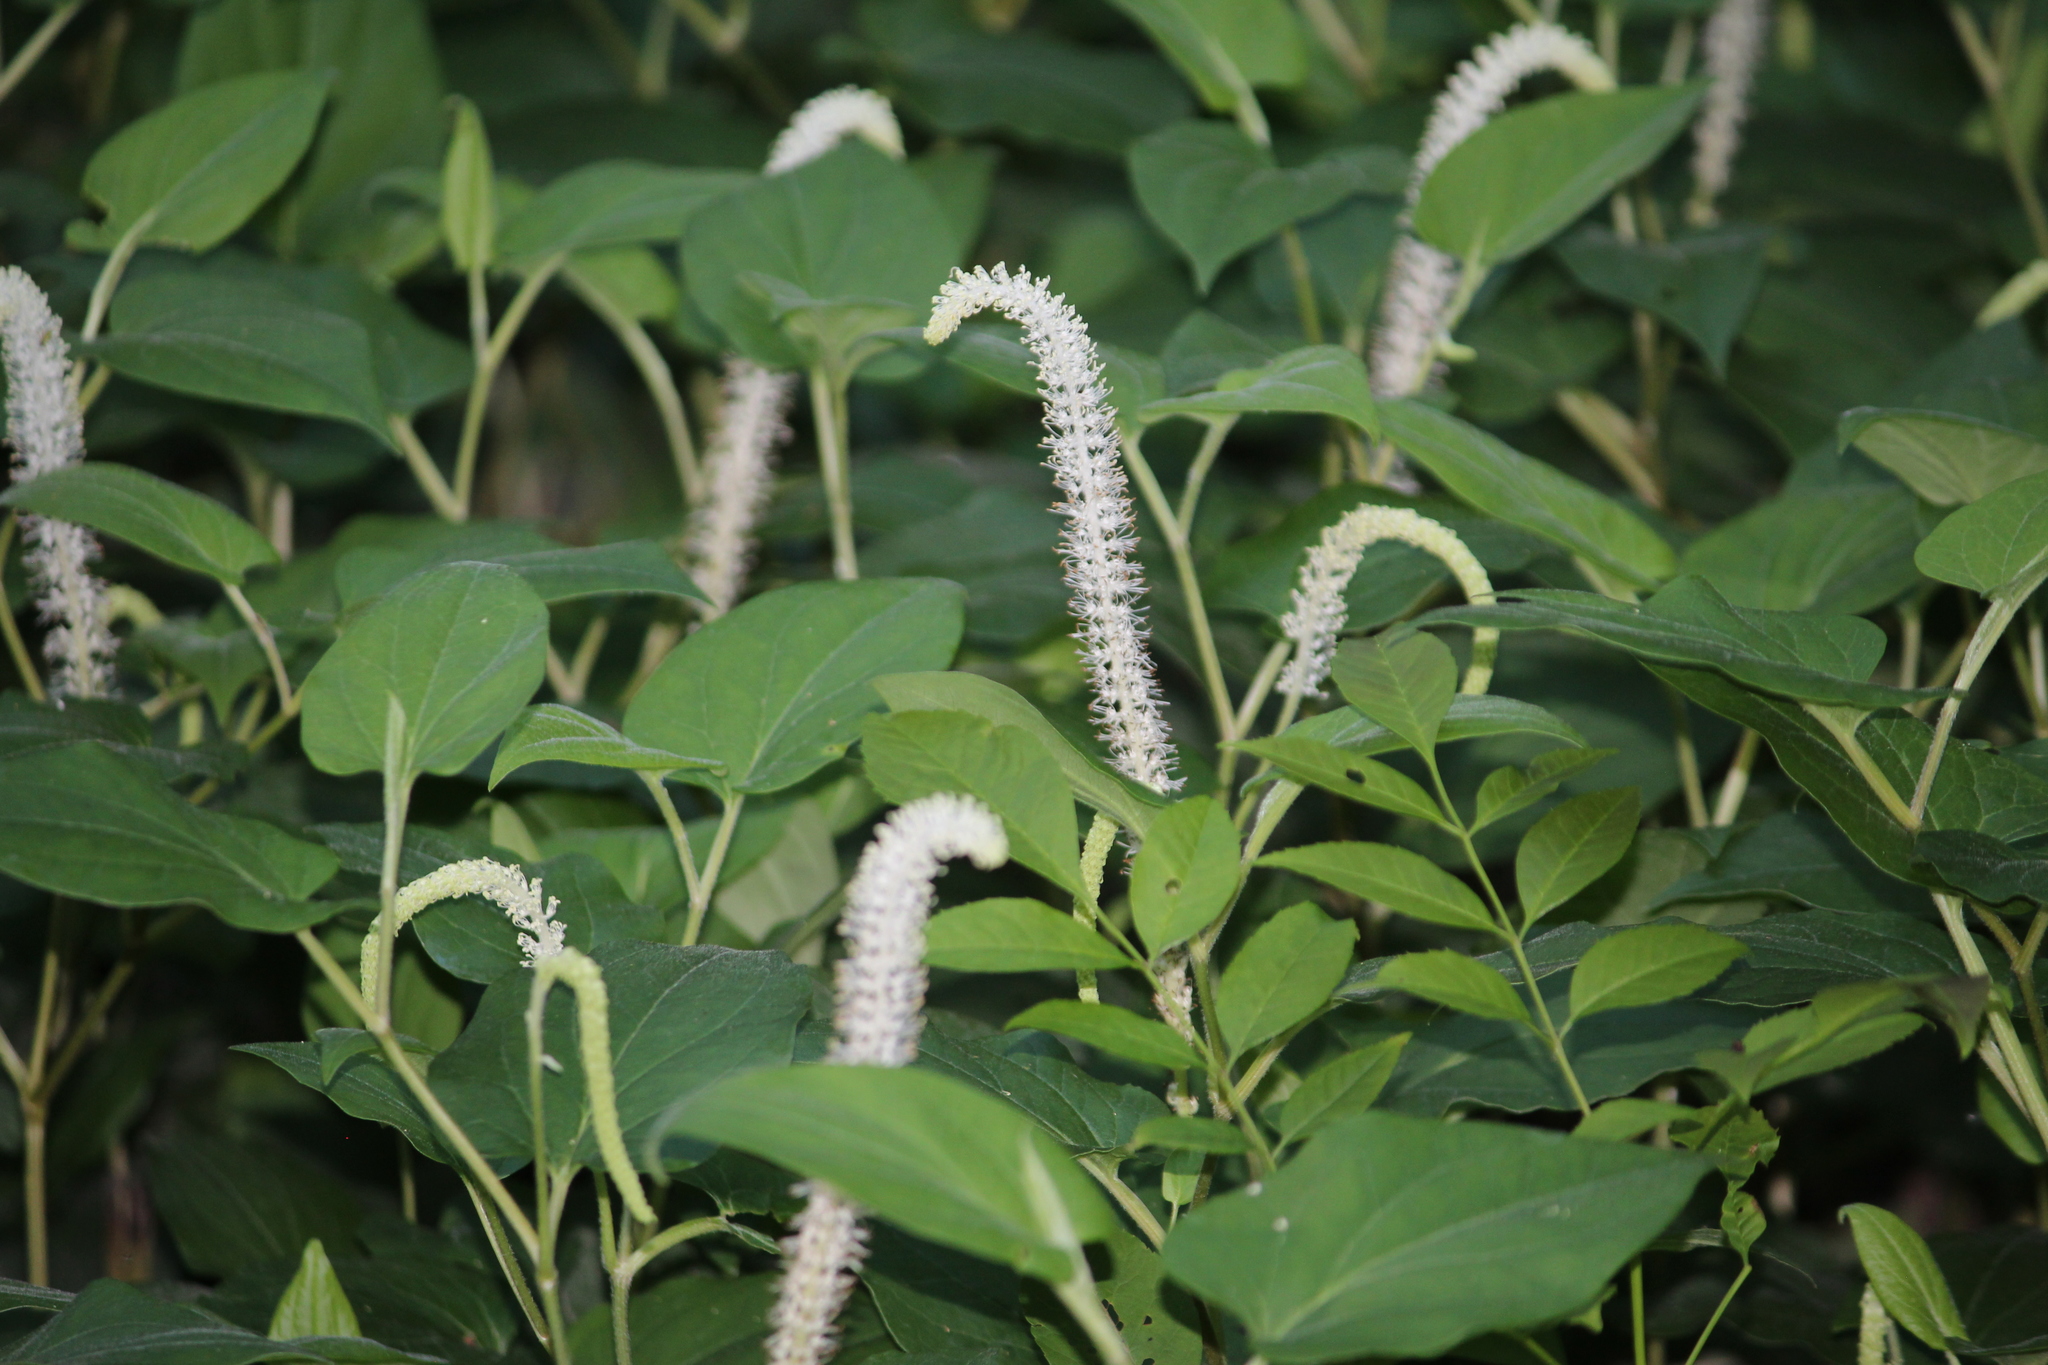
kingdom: Plantae
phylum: Tracheophyta
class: Magnoliopsida
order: Piperales
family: Saururaceae
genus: Saururus
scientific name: Saururus cernuus
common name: Lizard's-tail
